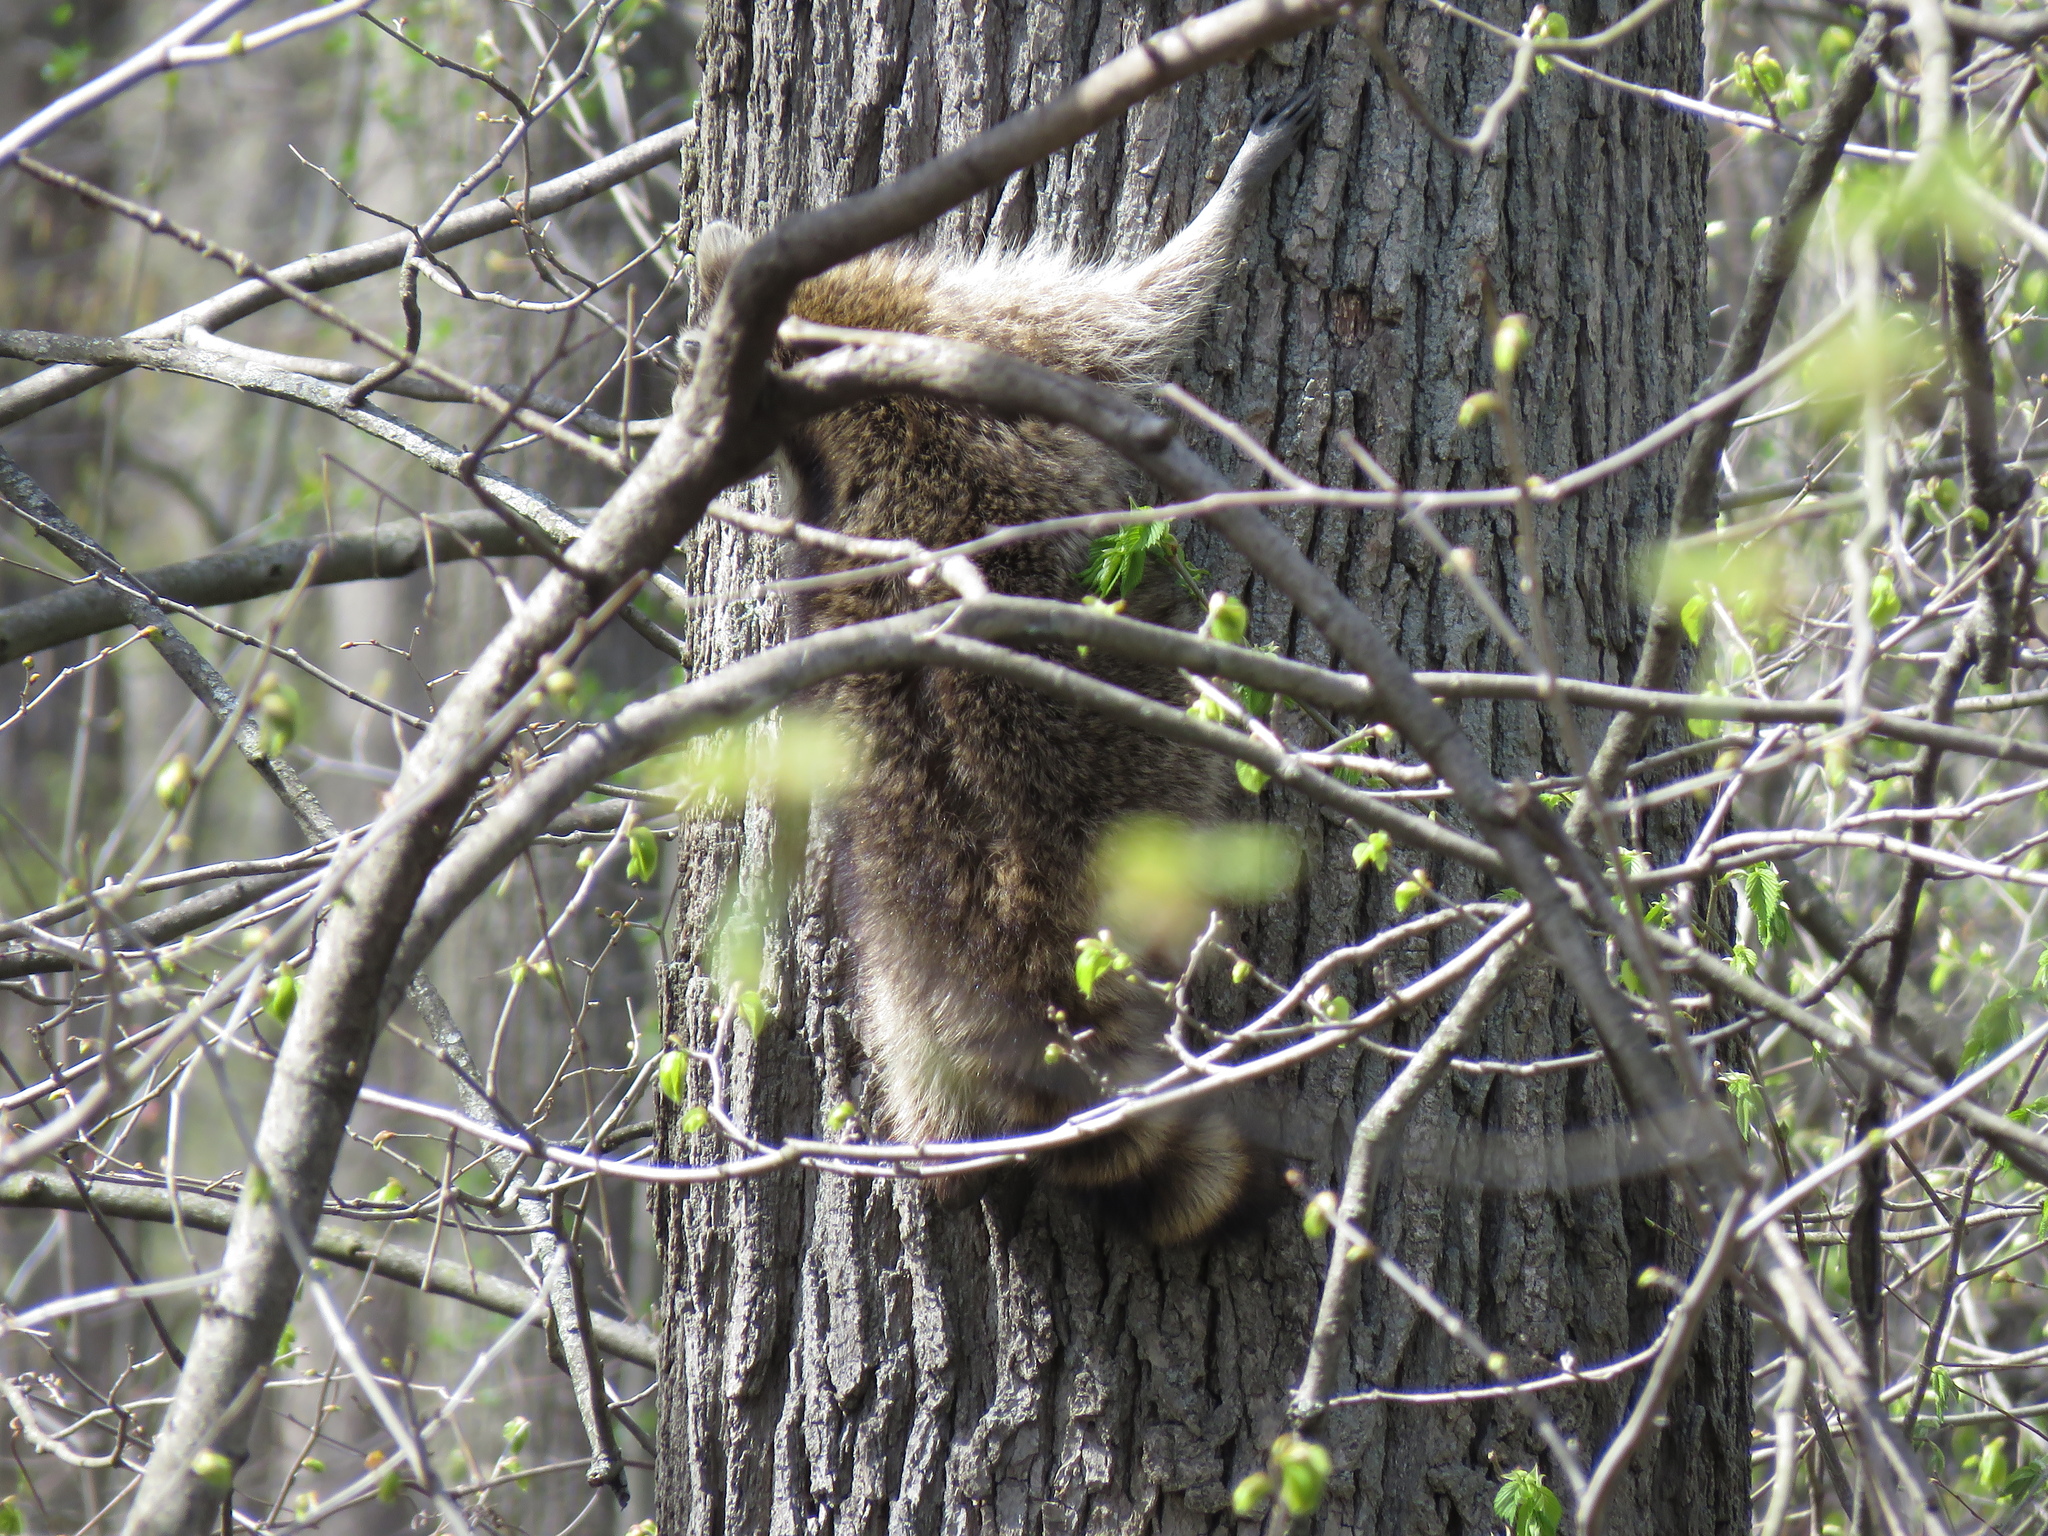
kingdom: Animalia
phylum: Chordata
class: Mammalia
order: Carnivora
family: Procyonidae
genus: Procyon
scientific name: Procyon lotor
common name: Raccoon
